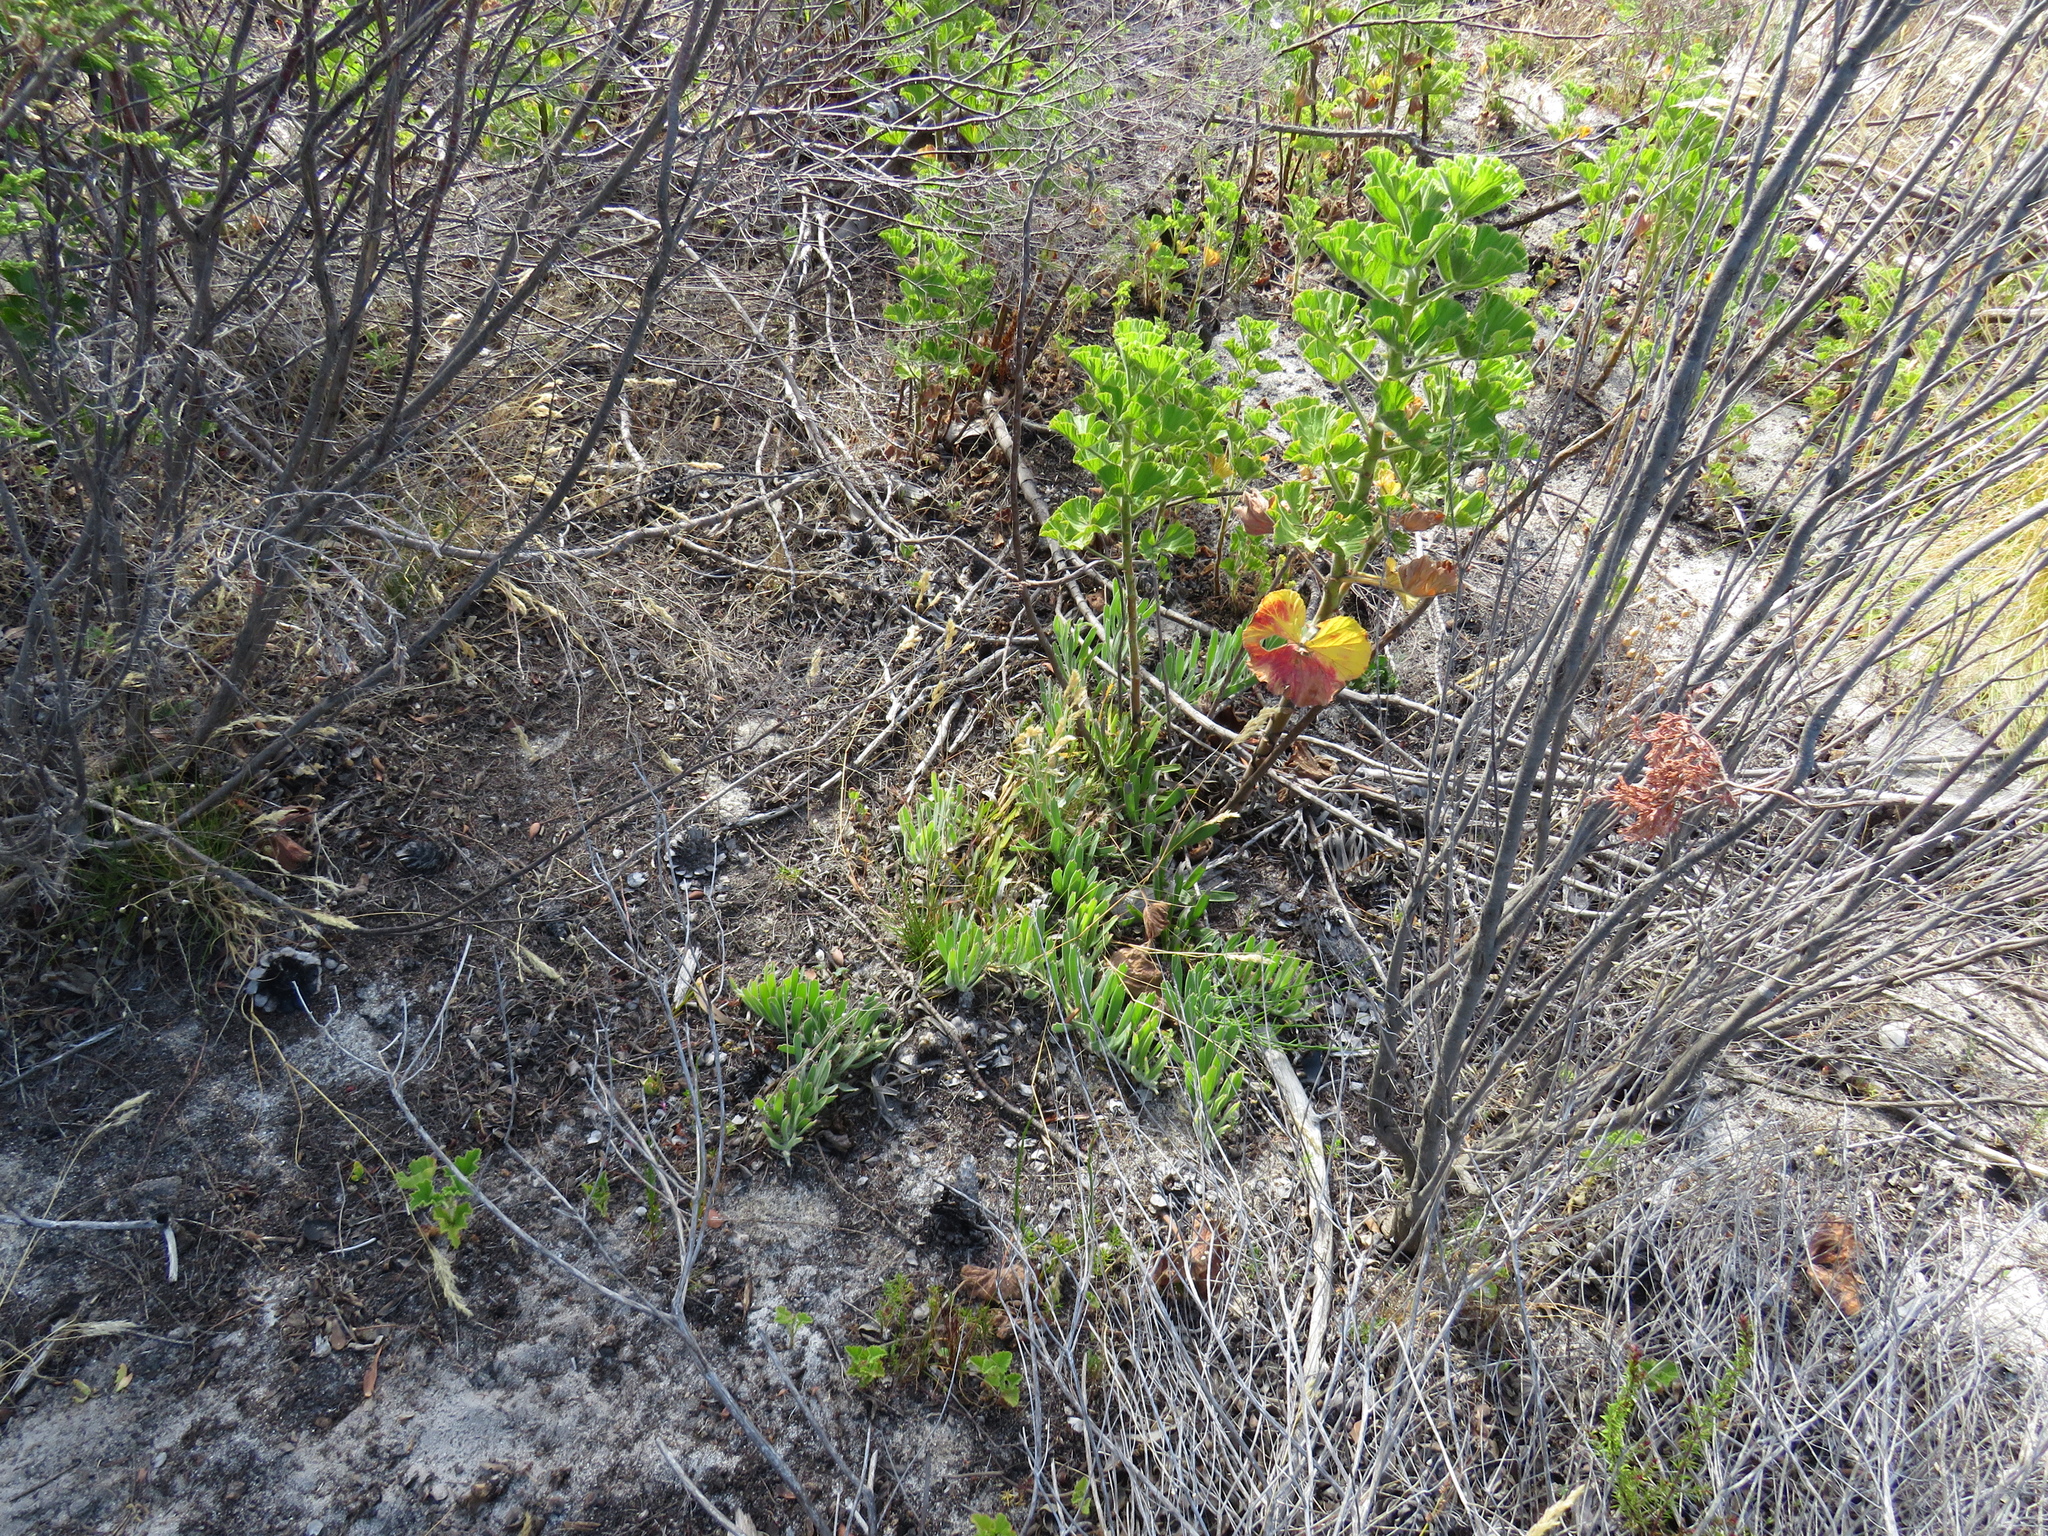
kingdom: Plantae
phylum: Tracheophyta
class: Magnoliopsida
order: Proteales
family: Proteaceae
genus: Leucospermum
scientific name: Leucospermum hypophyllocarpodendron
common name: Snakestem pincushion
